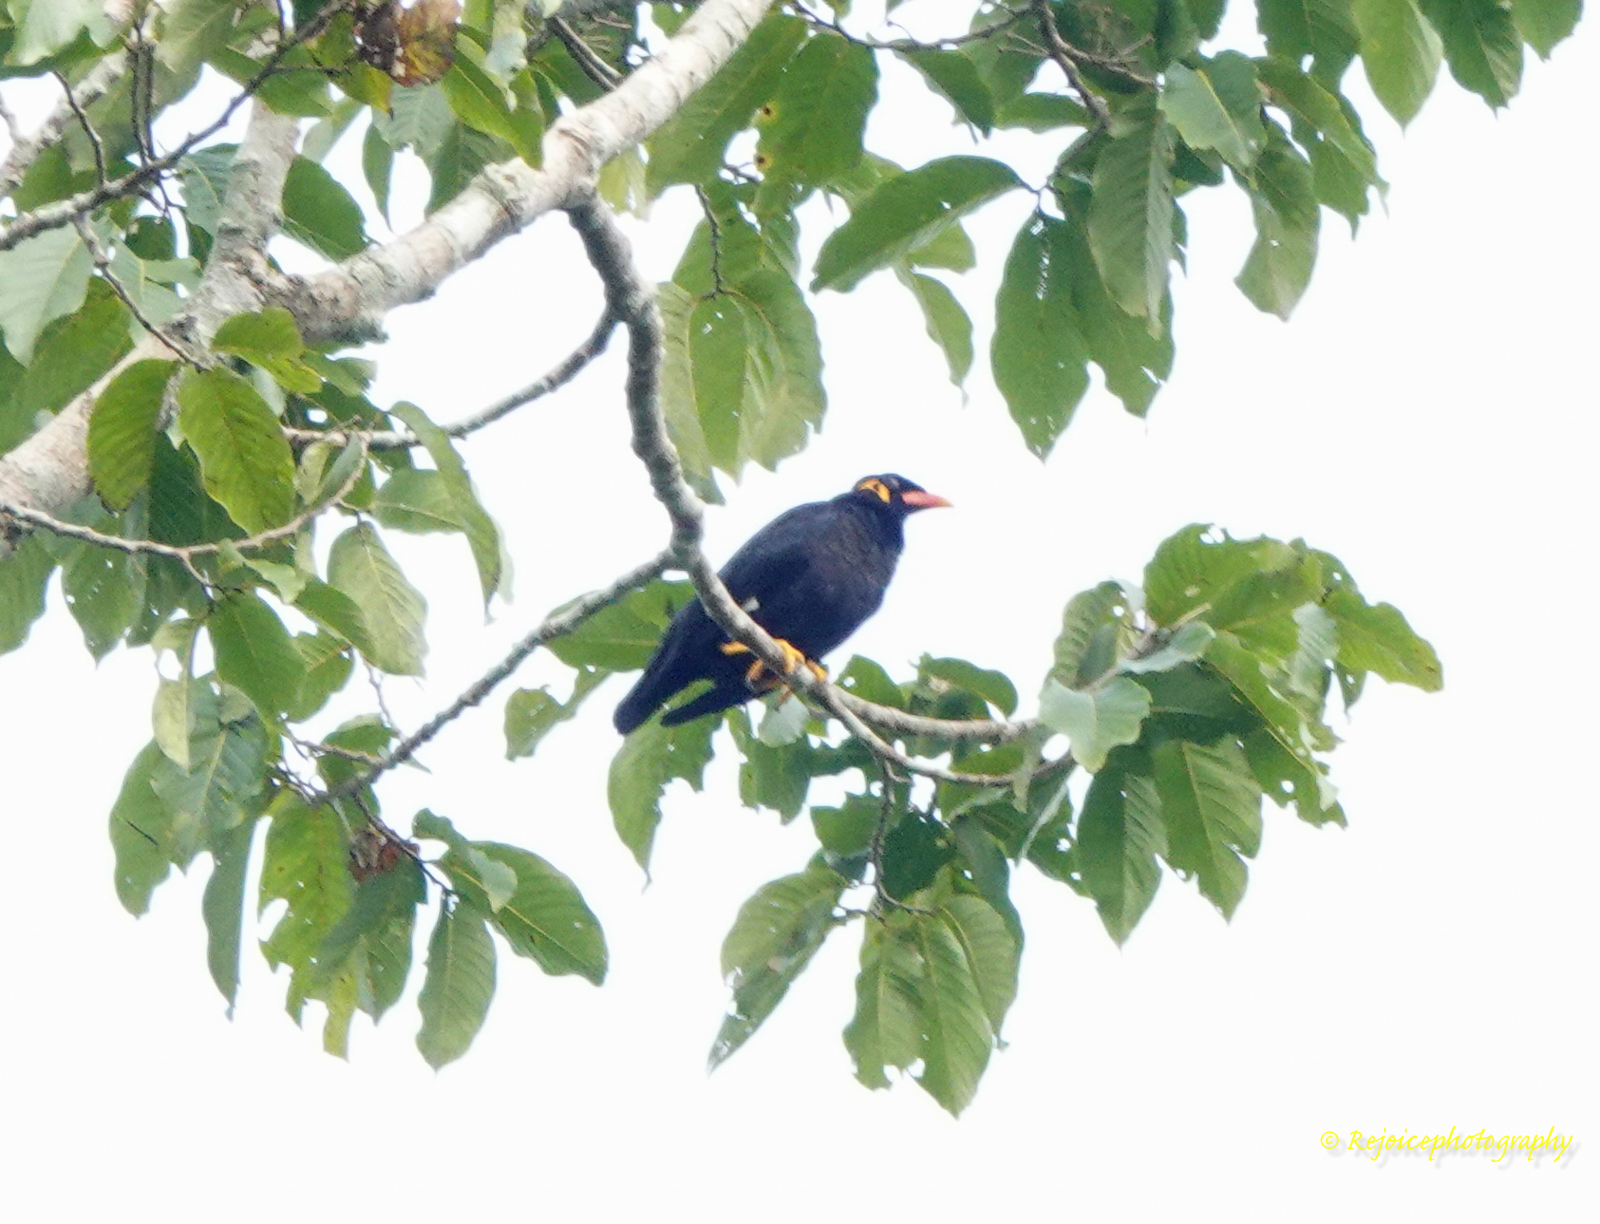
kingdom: Animalia
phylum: Chordata
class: Aves
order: Passeriformes
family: Sturnidae
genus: Gracula
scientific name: Gracula religiosa
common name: Common hill myna
